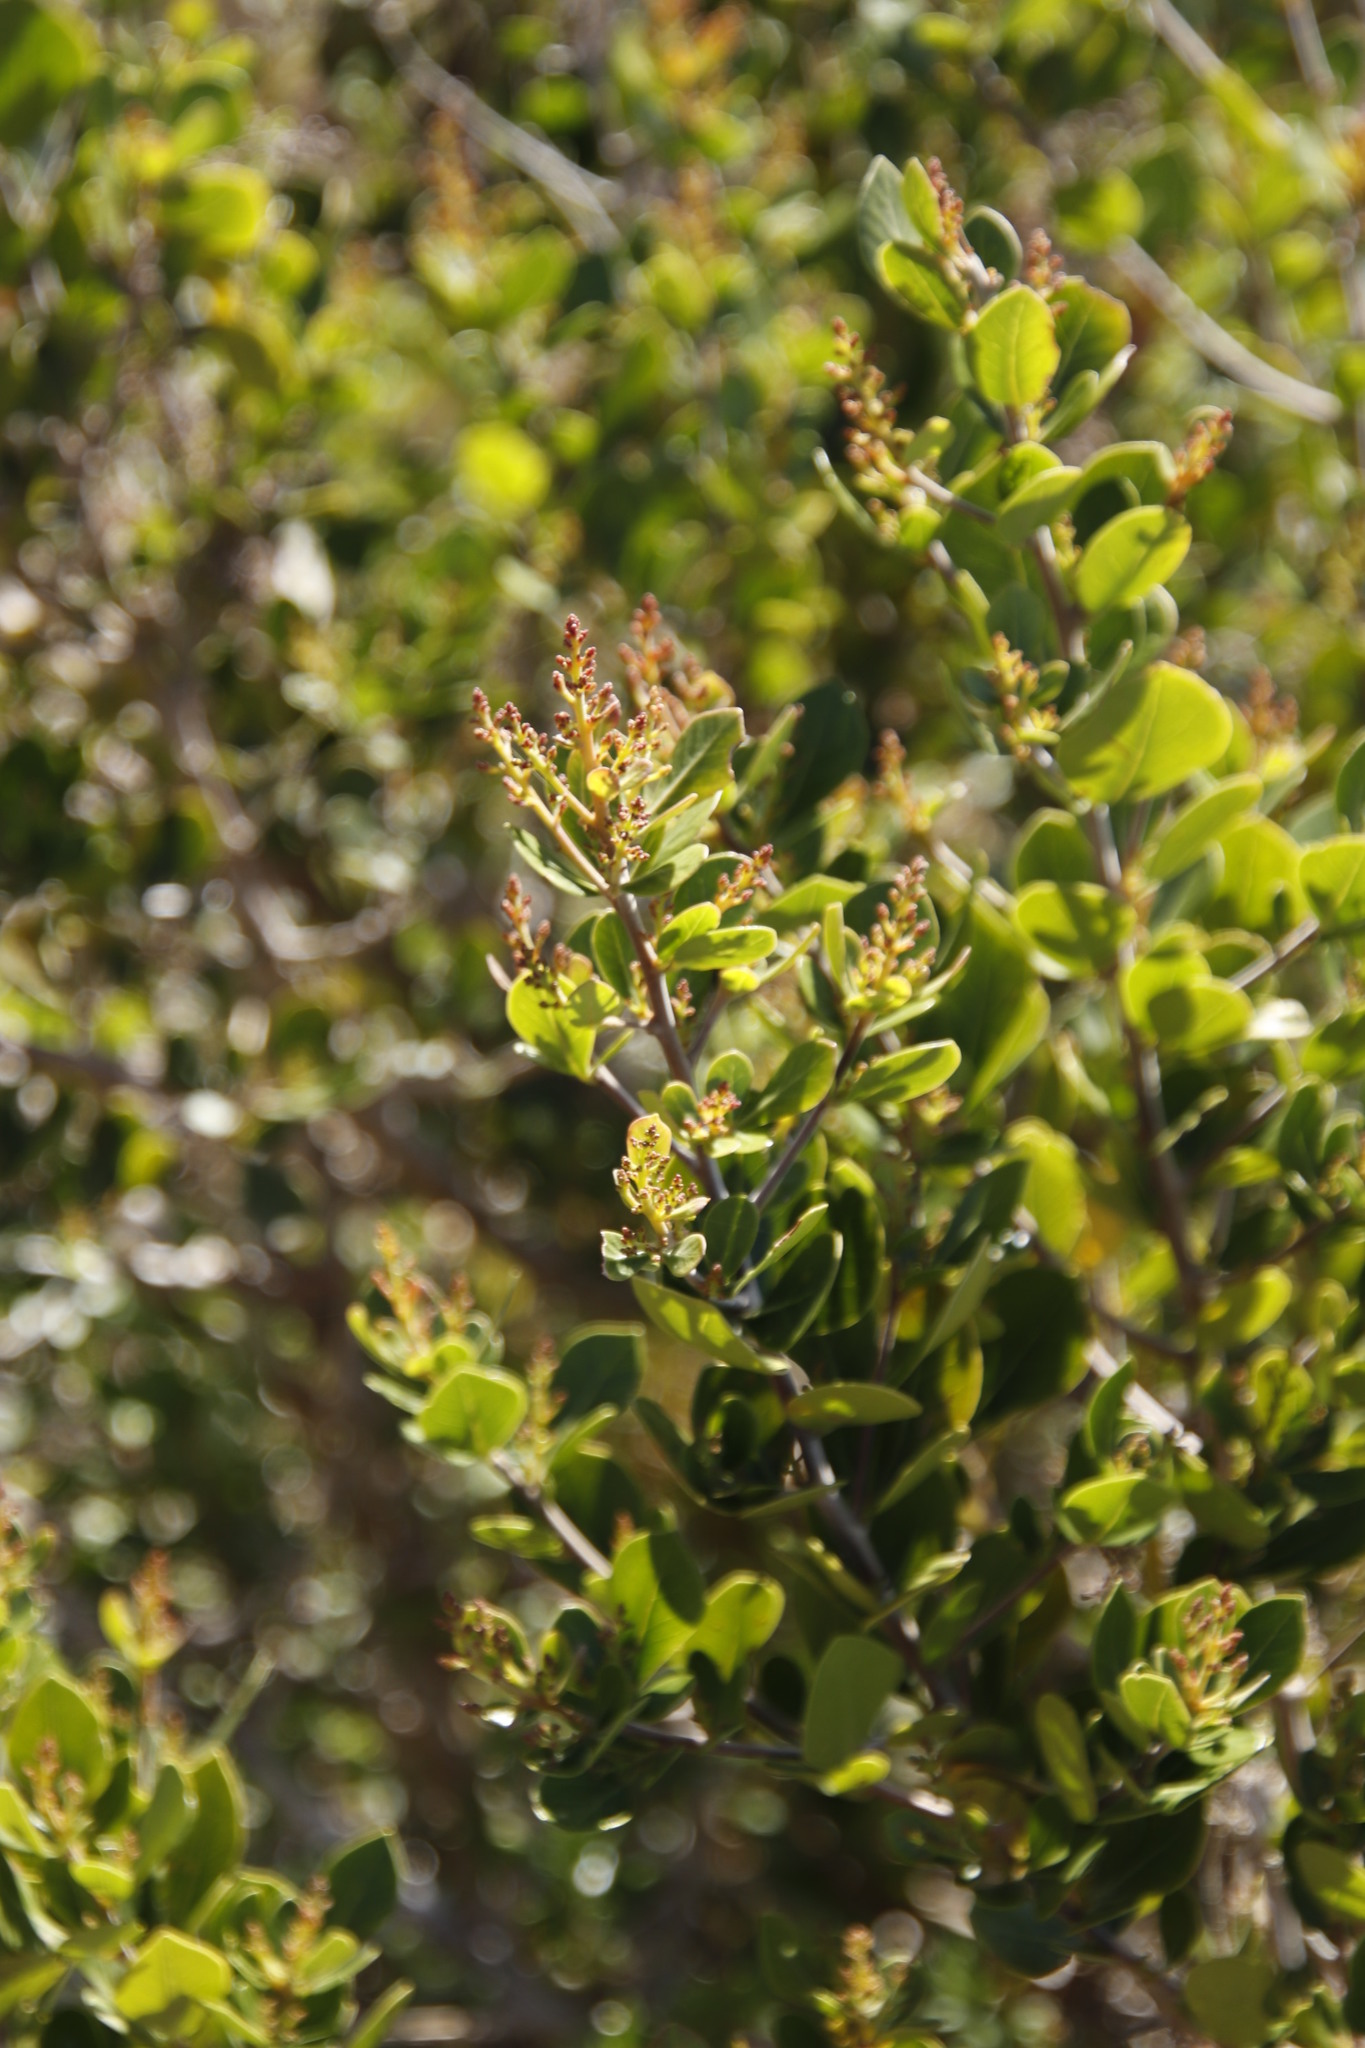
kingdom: Plantae
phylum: Tracheophyta
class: Magnoliopsida
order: Sapindales
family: Anacardiaceae
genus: Searsia
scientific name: Searsia lucida
